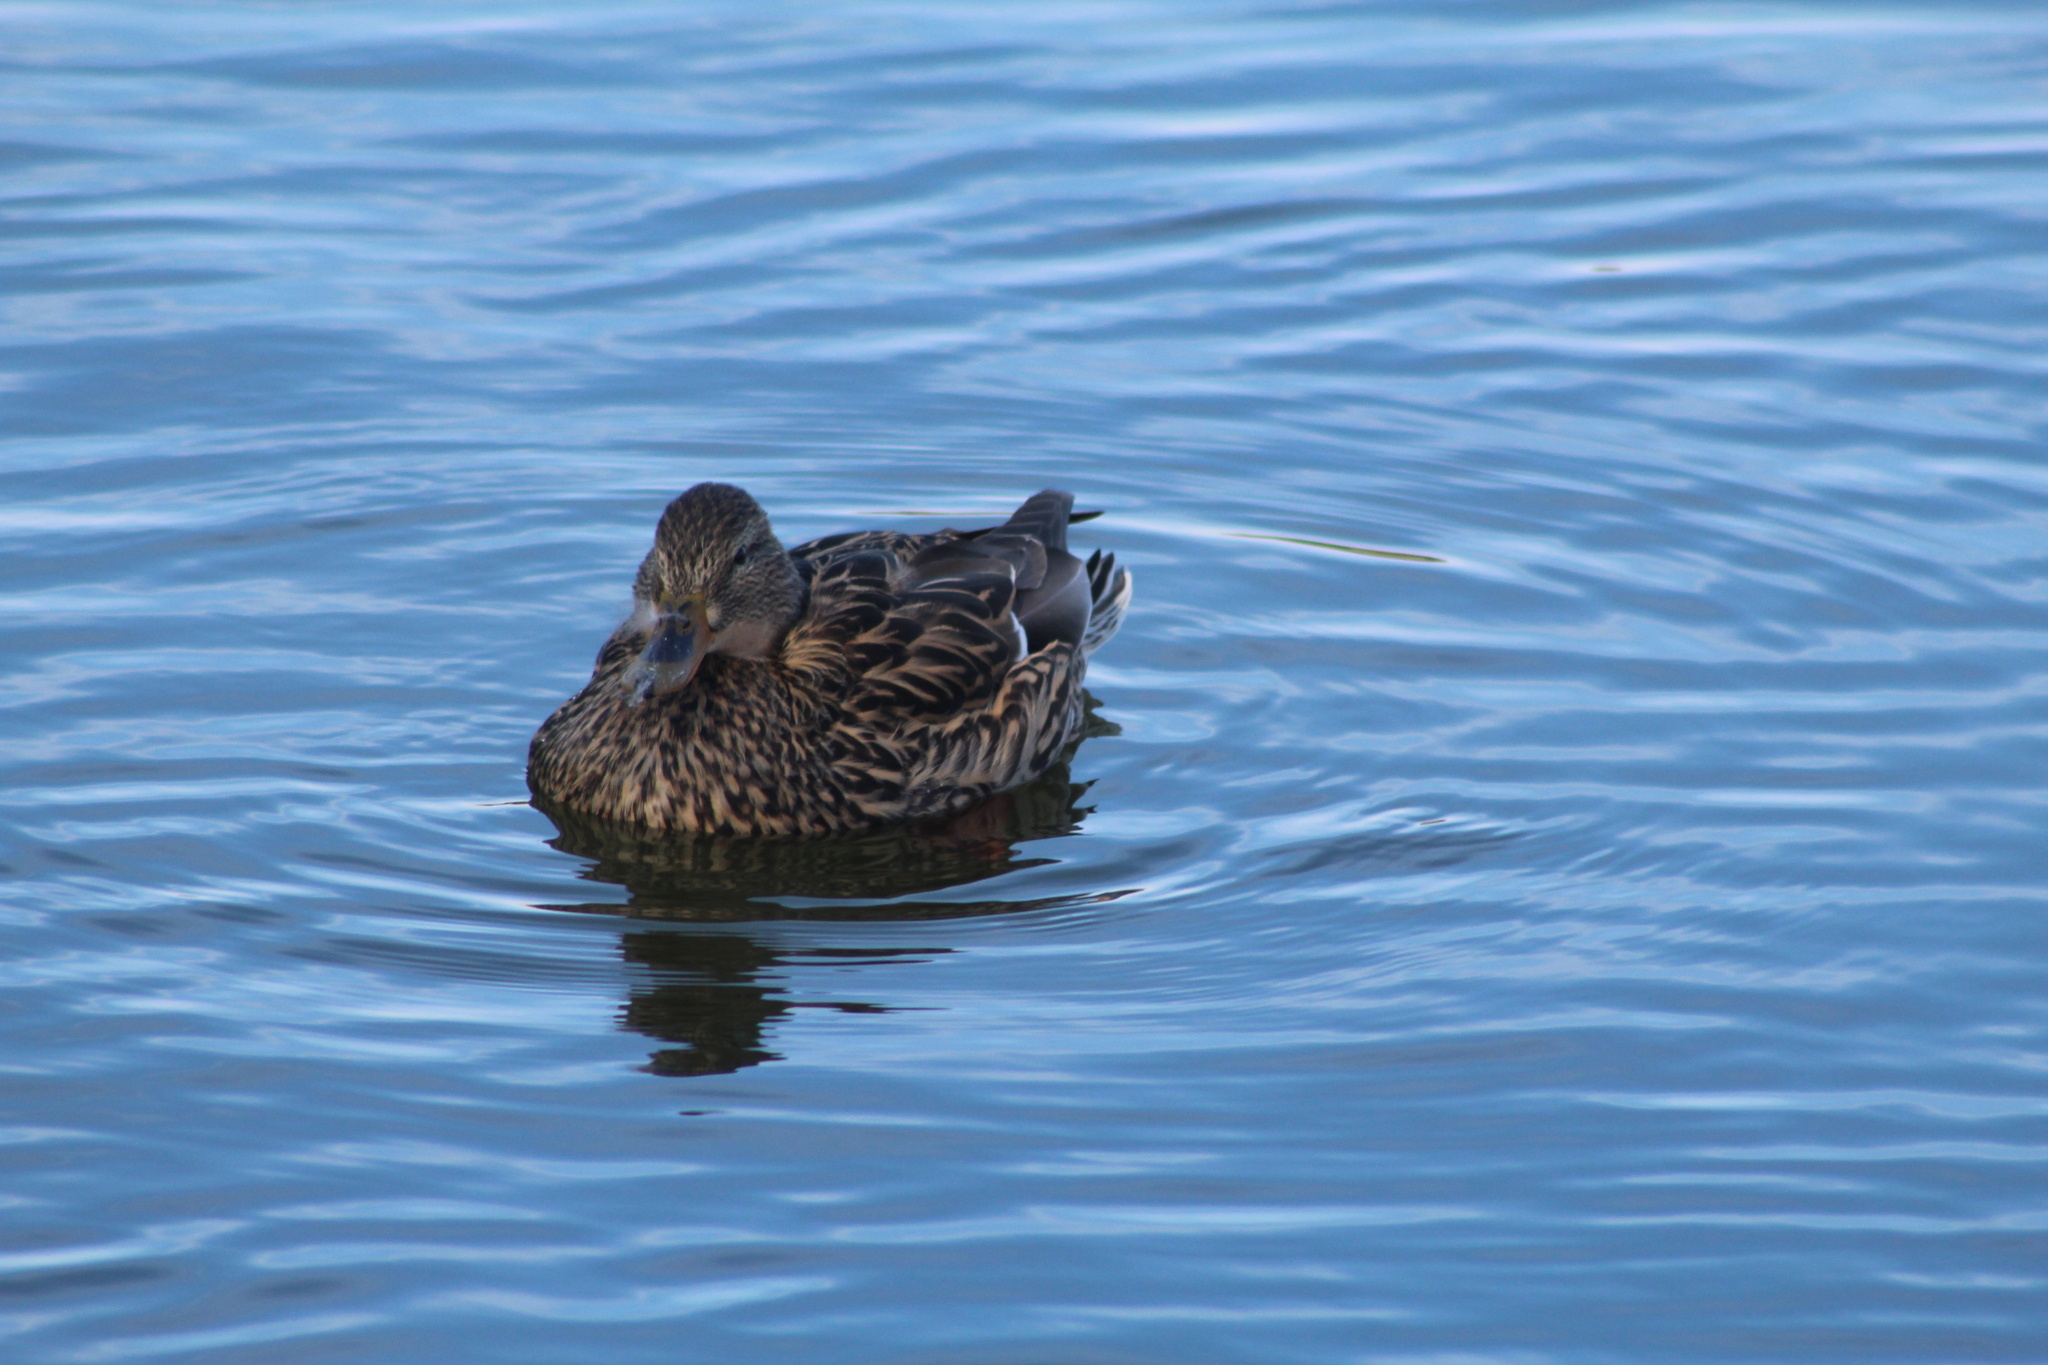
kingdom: Animalia
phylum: Chordata
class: Aves
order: Anseriformes
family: Anatidae
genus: Anas
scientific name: Anas platyrhynchos
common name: Mallard
